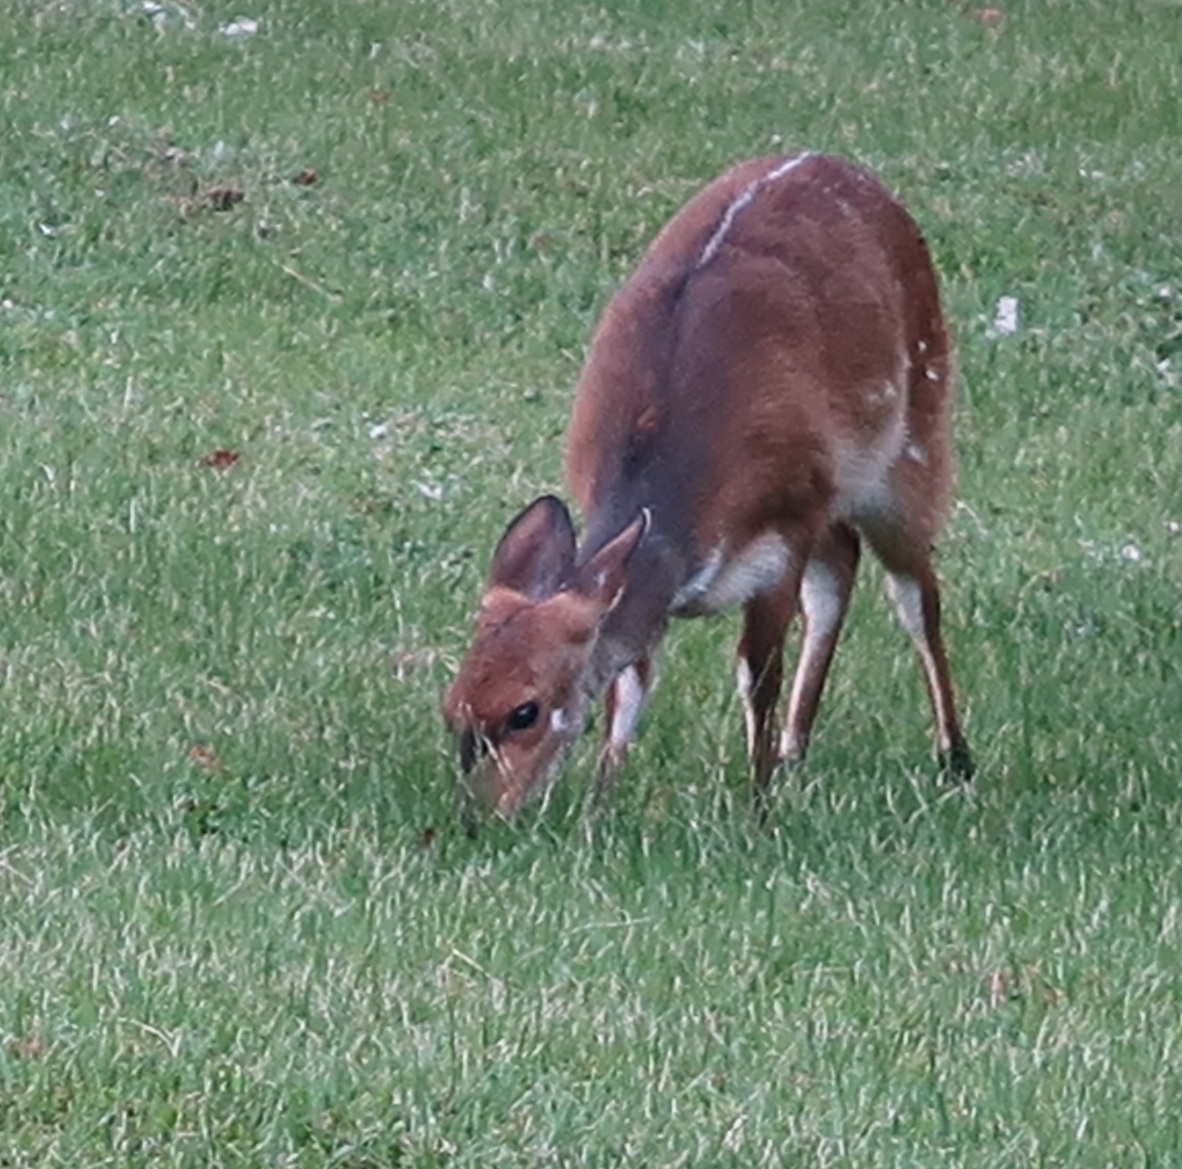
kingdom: Animalia
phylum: Chordata
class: Mammalia
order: Artiodactyla
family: Bovidae
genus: Tragelaphus
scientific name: Tragelaphus scriptus
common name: Bushbuck
